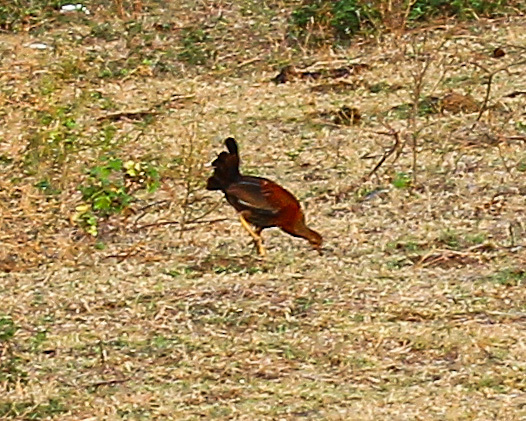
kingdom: Animalia
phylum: Chordata
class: Aves
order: Galliformes
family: Phasianidae
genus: Gallus
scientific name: Gallus lafayettii
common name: Sri lanka junglefowl
